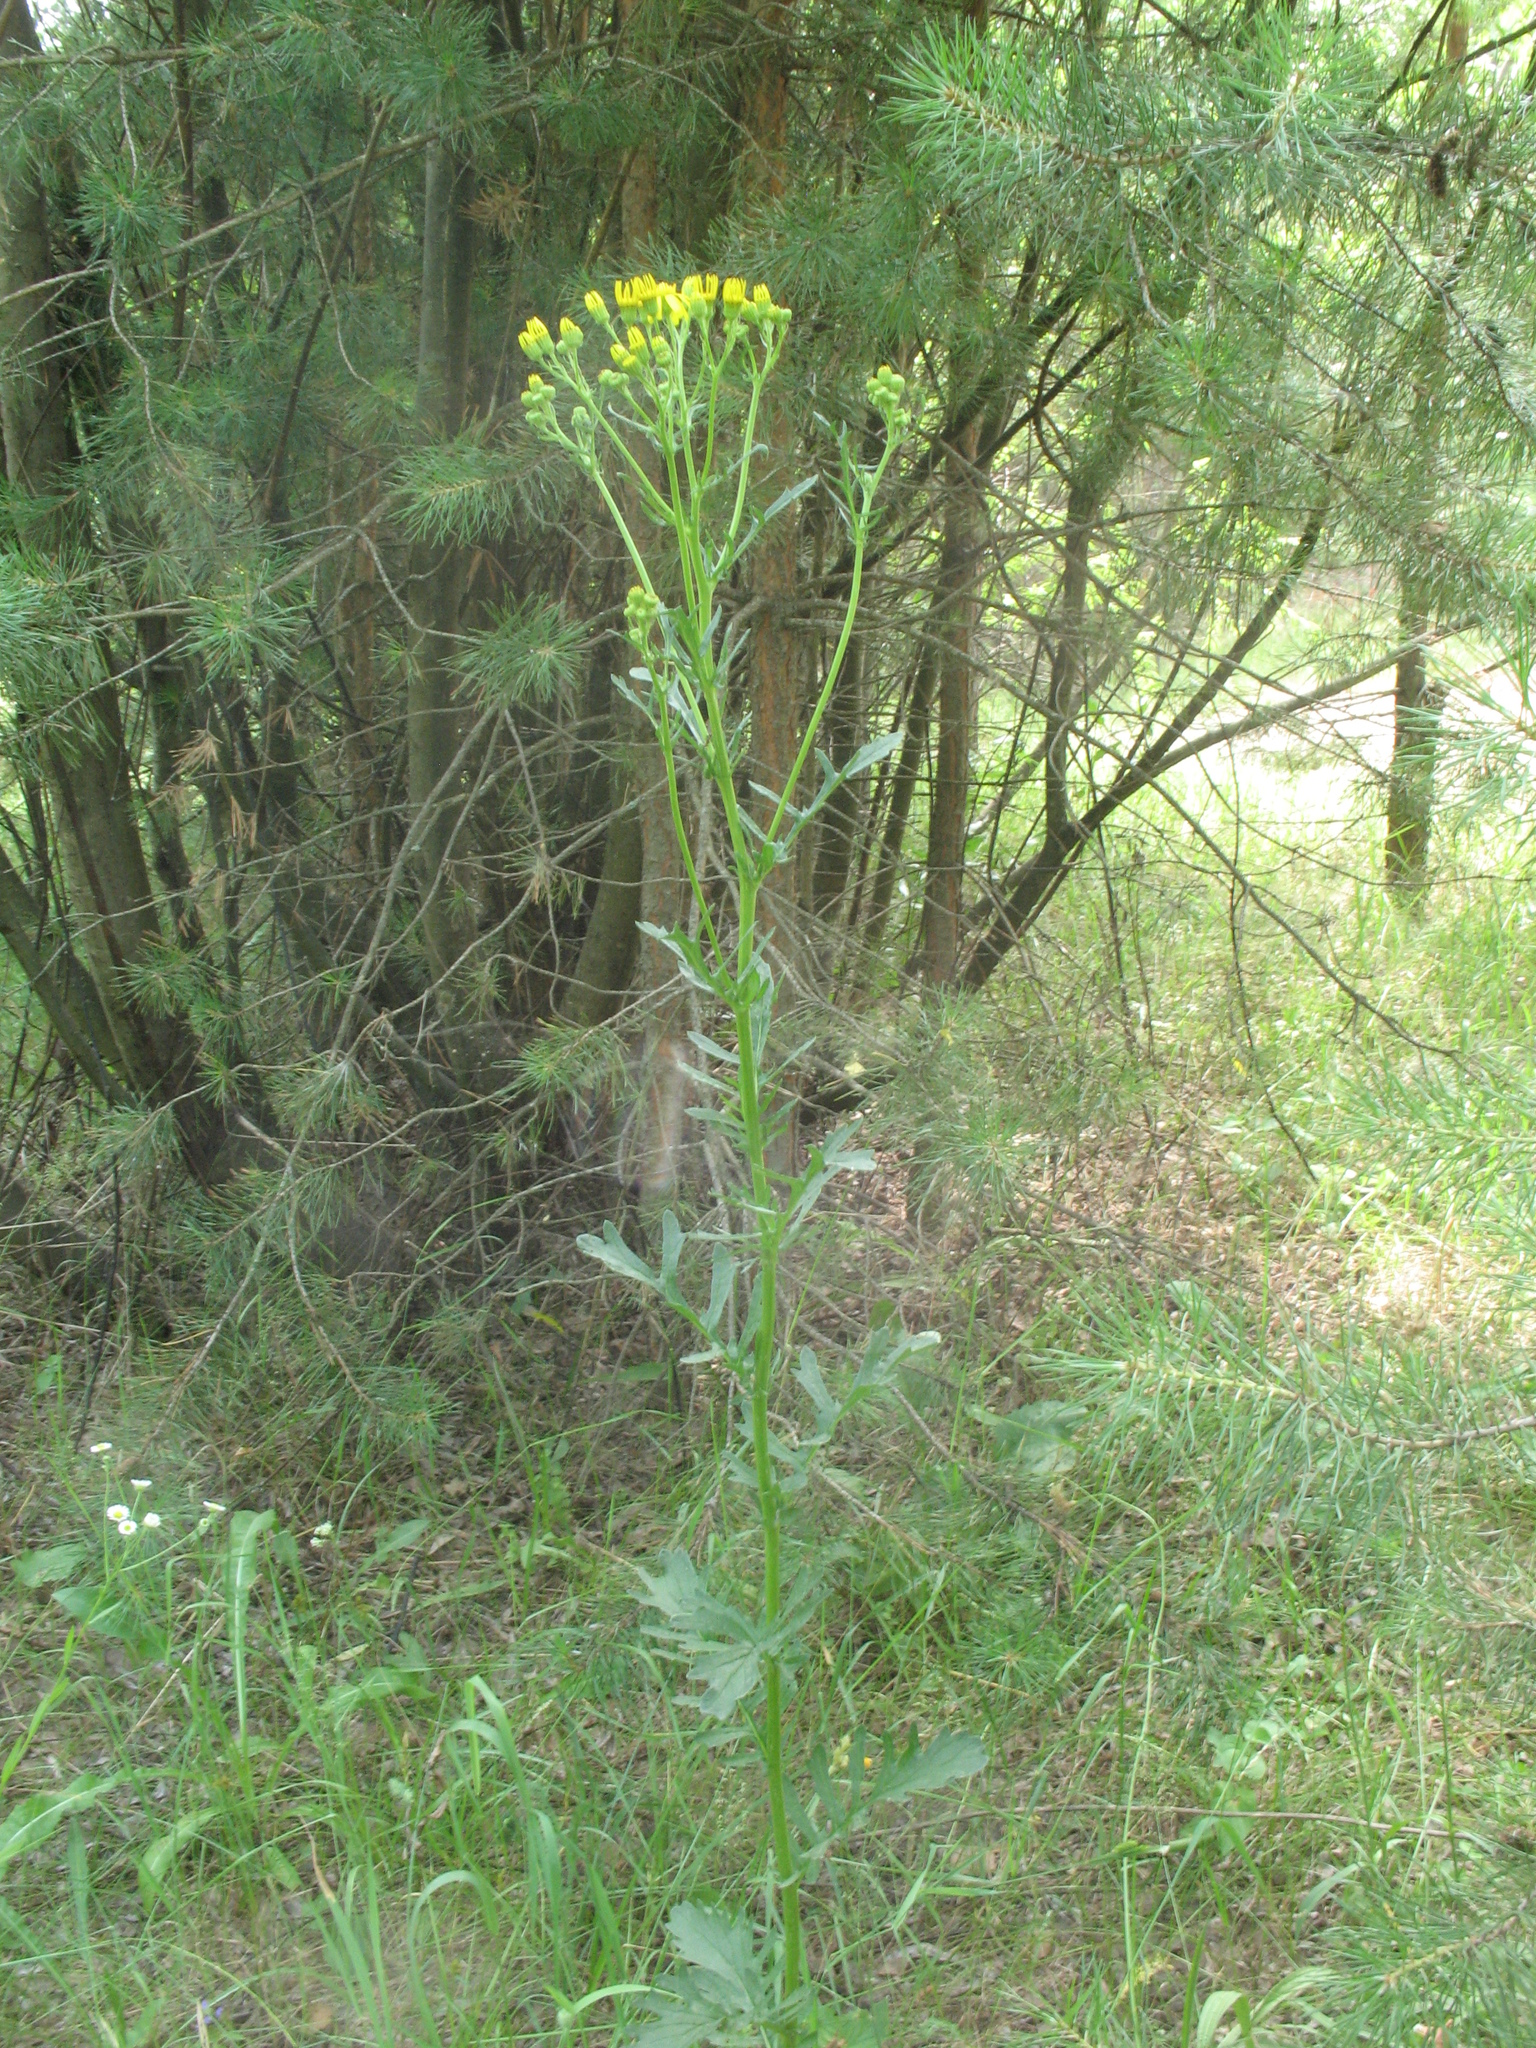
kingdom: Plantae
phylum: Tracheophyta
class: Magnoliopsida
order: Asterales
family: Asteraceae
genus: Jacobaea
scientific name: Jacobaea vulgaris
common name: Stinking willie
